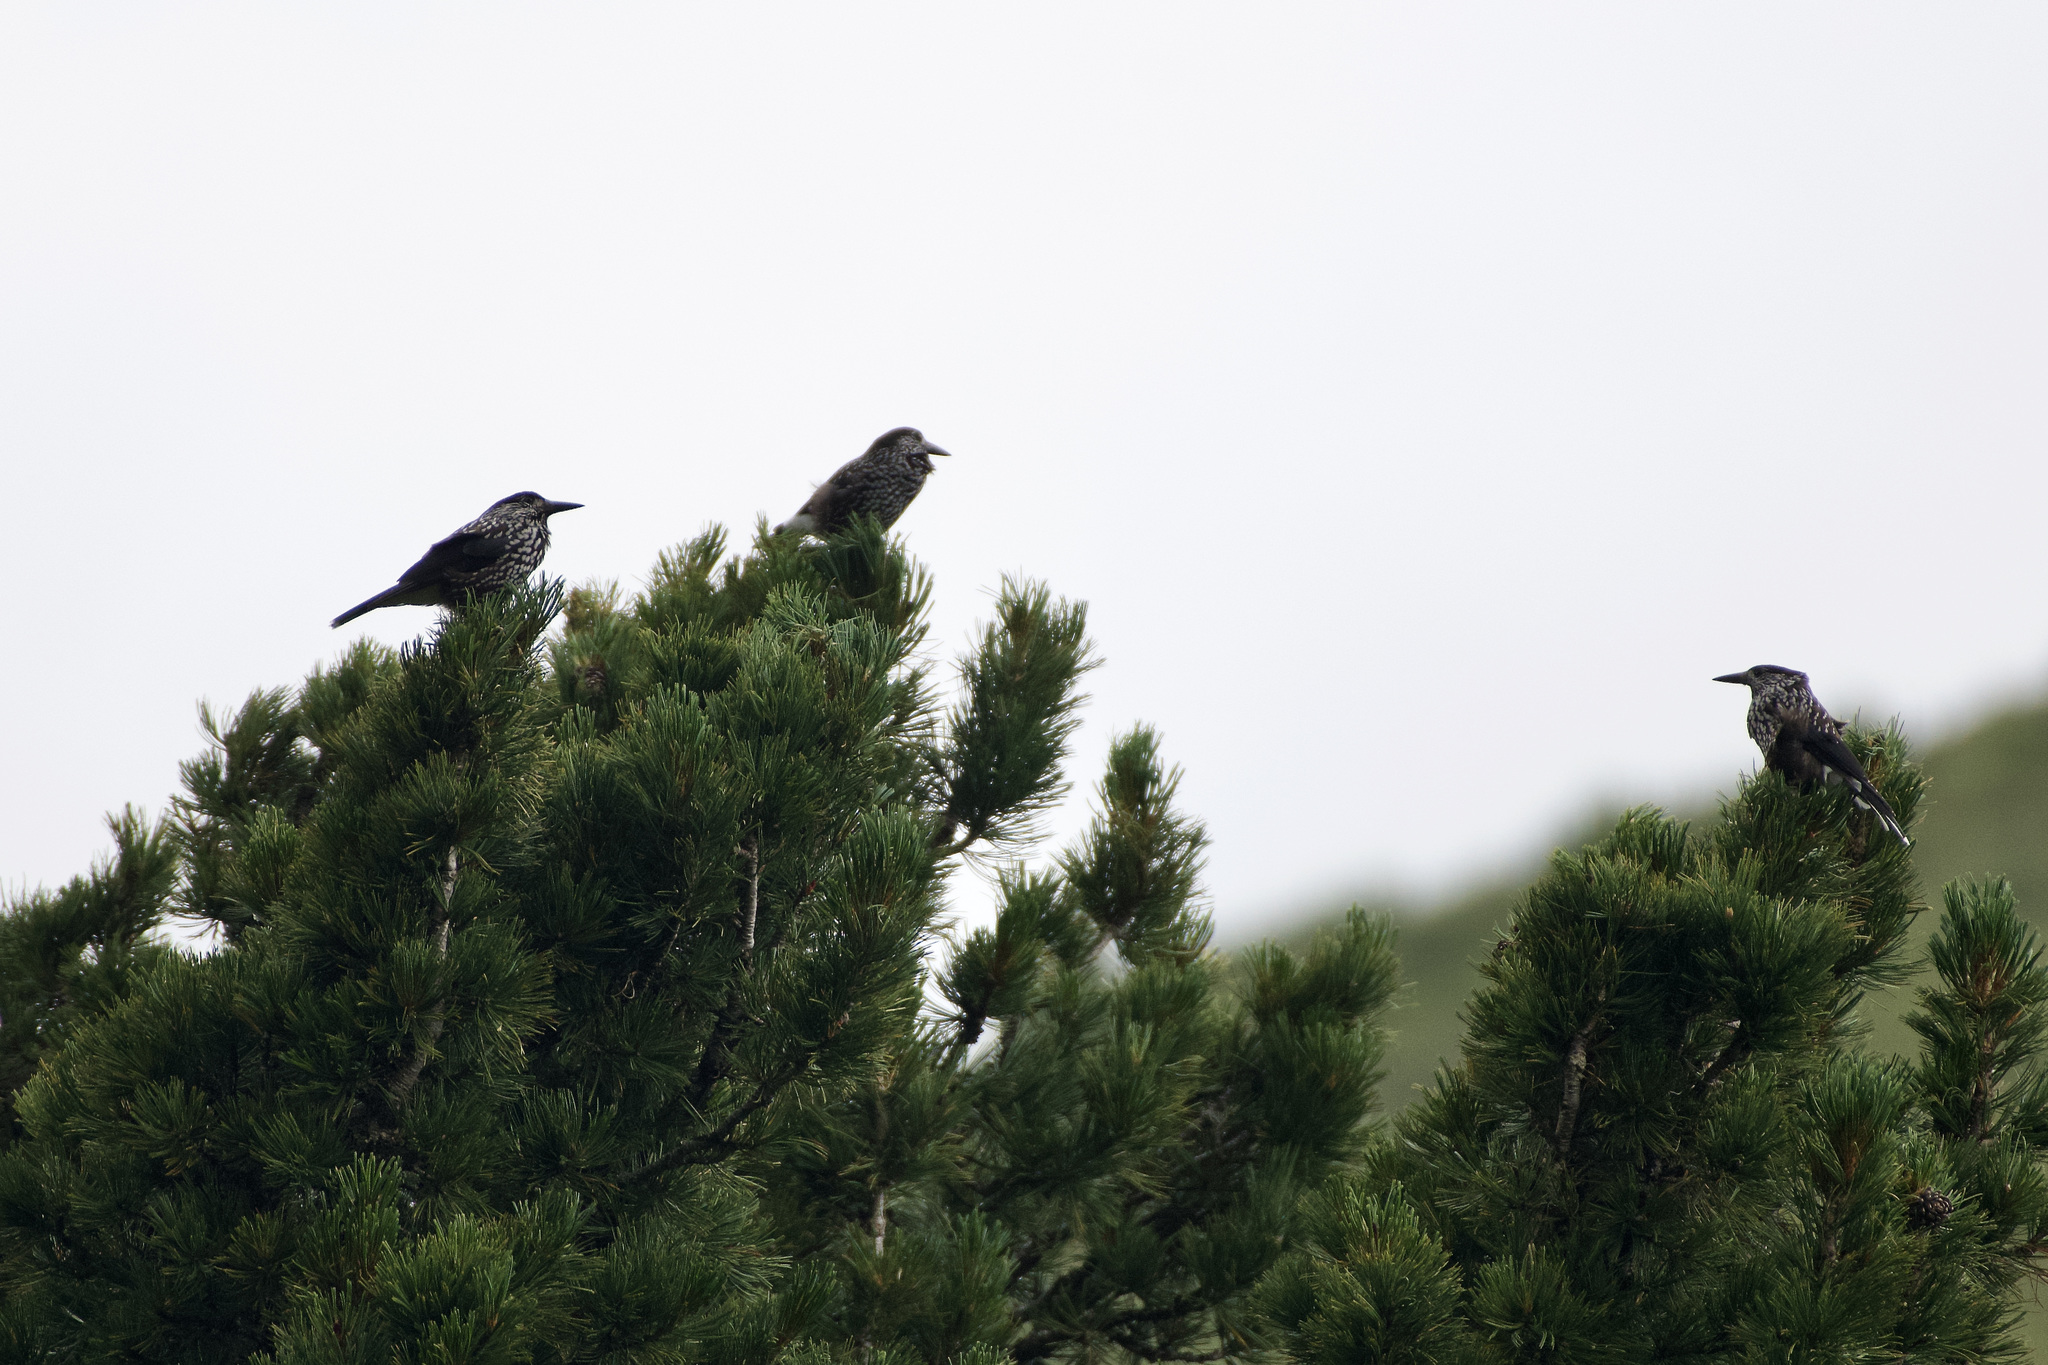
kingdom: Animalia
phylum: Chordata
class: Aves
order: Passeriformes
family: Corvidae
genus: Nucifraga
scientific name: Nucifraga caryocatactes
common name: Spotted nutcracker
